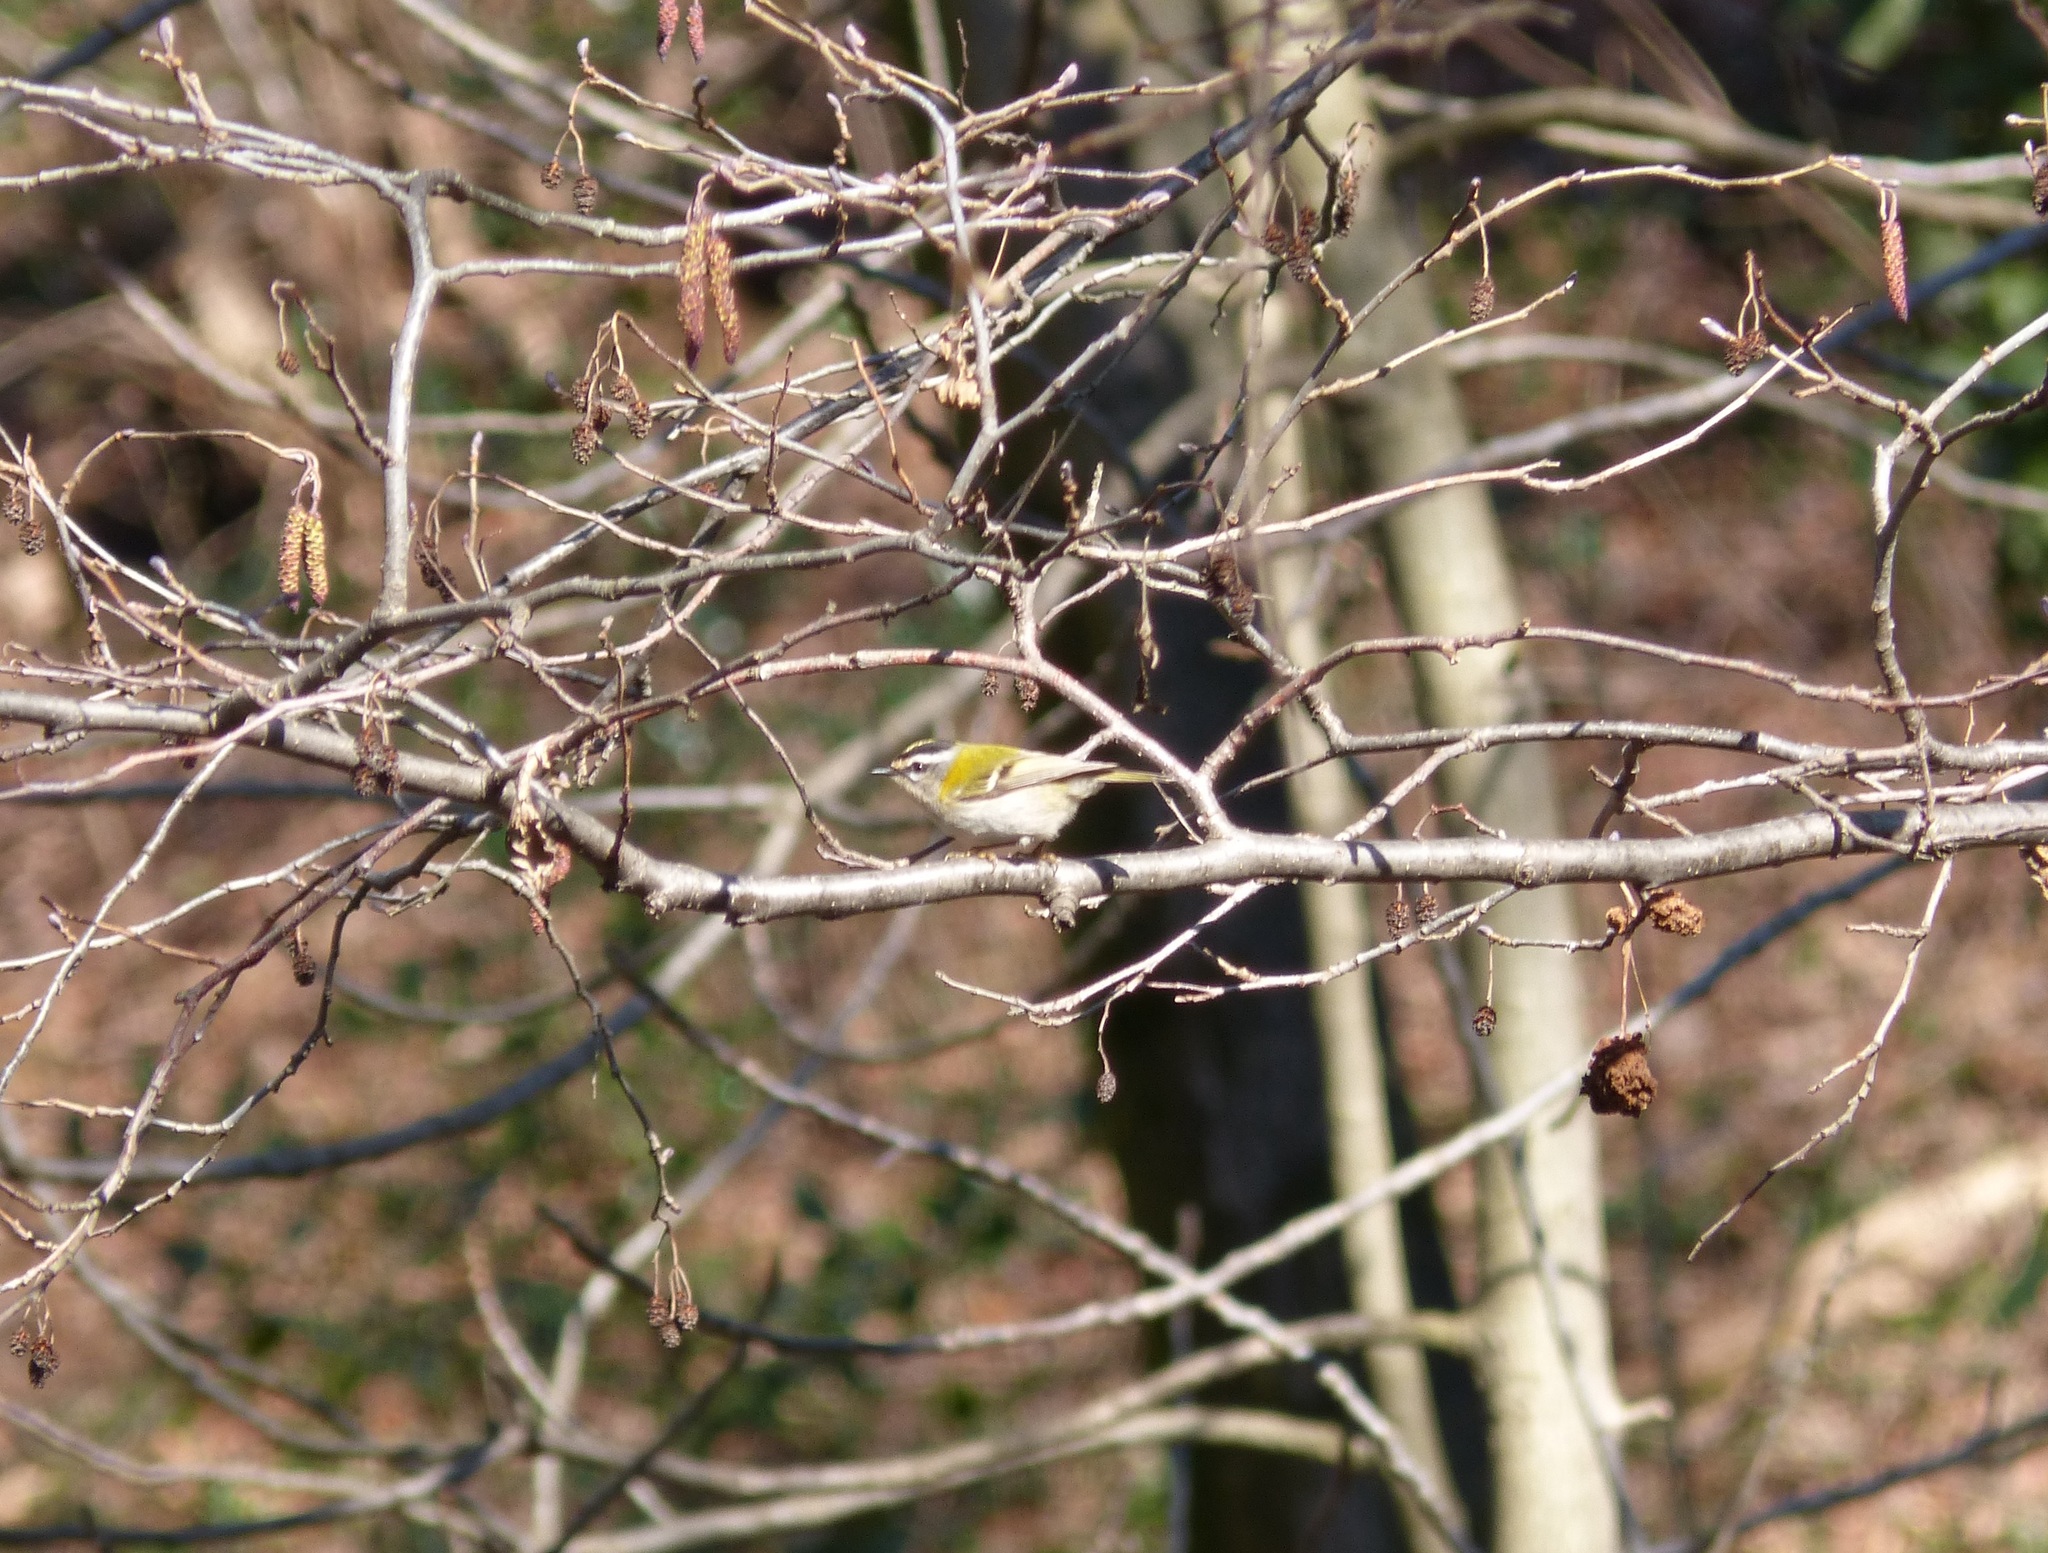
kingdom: Animalia
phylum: Chordata
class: Aves
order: Passeriformes
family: Regulidae
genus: Regulus
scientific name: Regulus ignicapilla
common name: Firecrest
